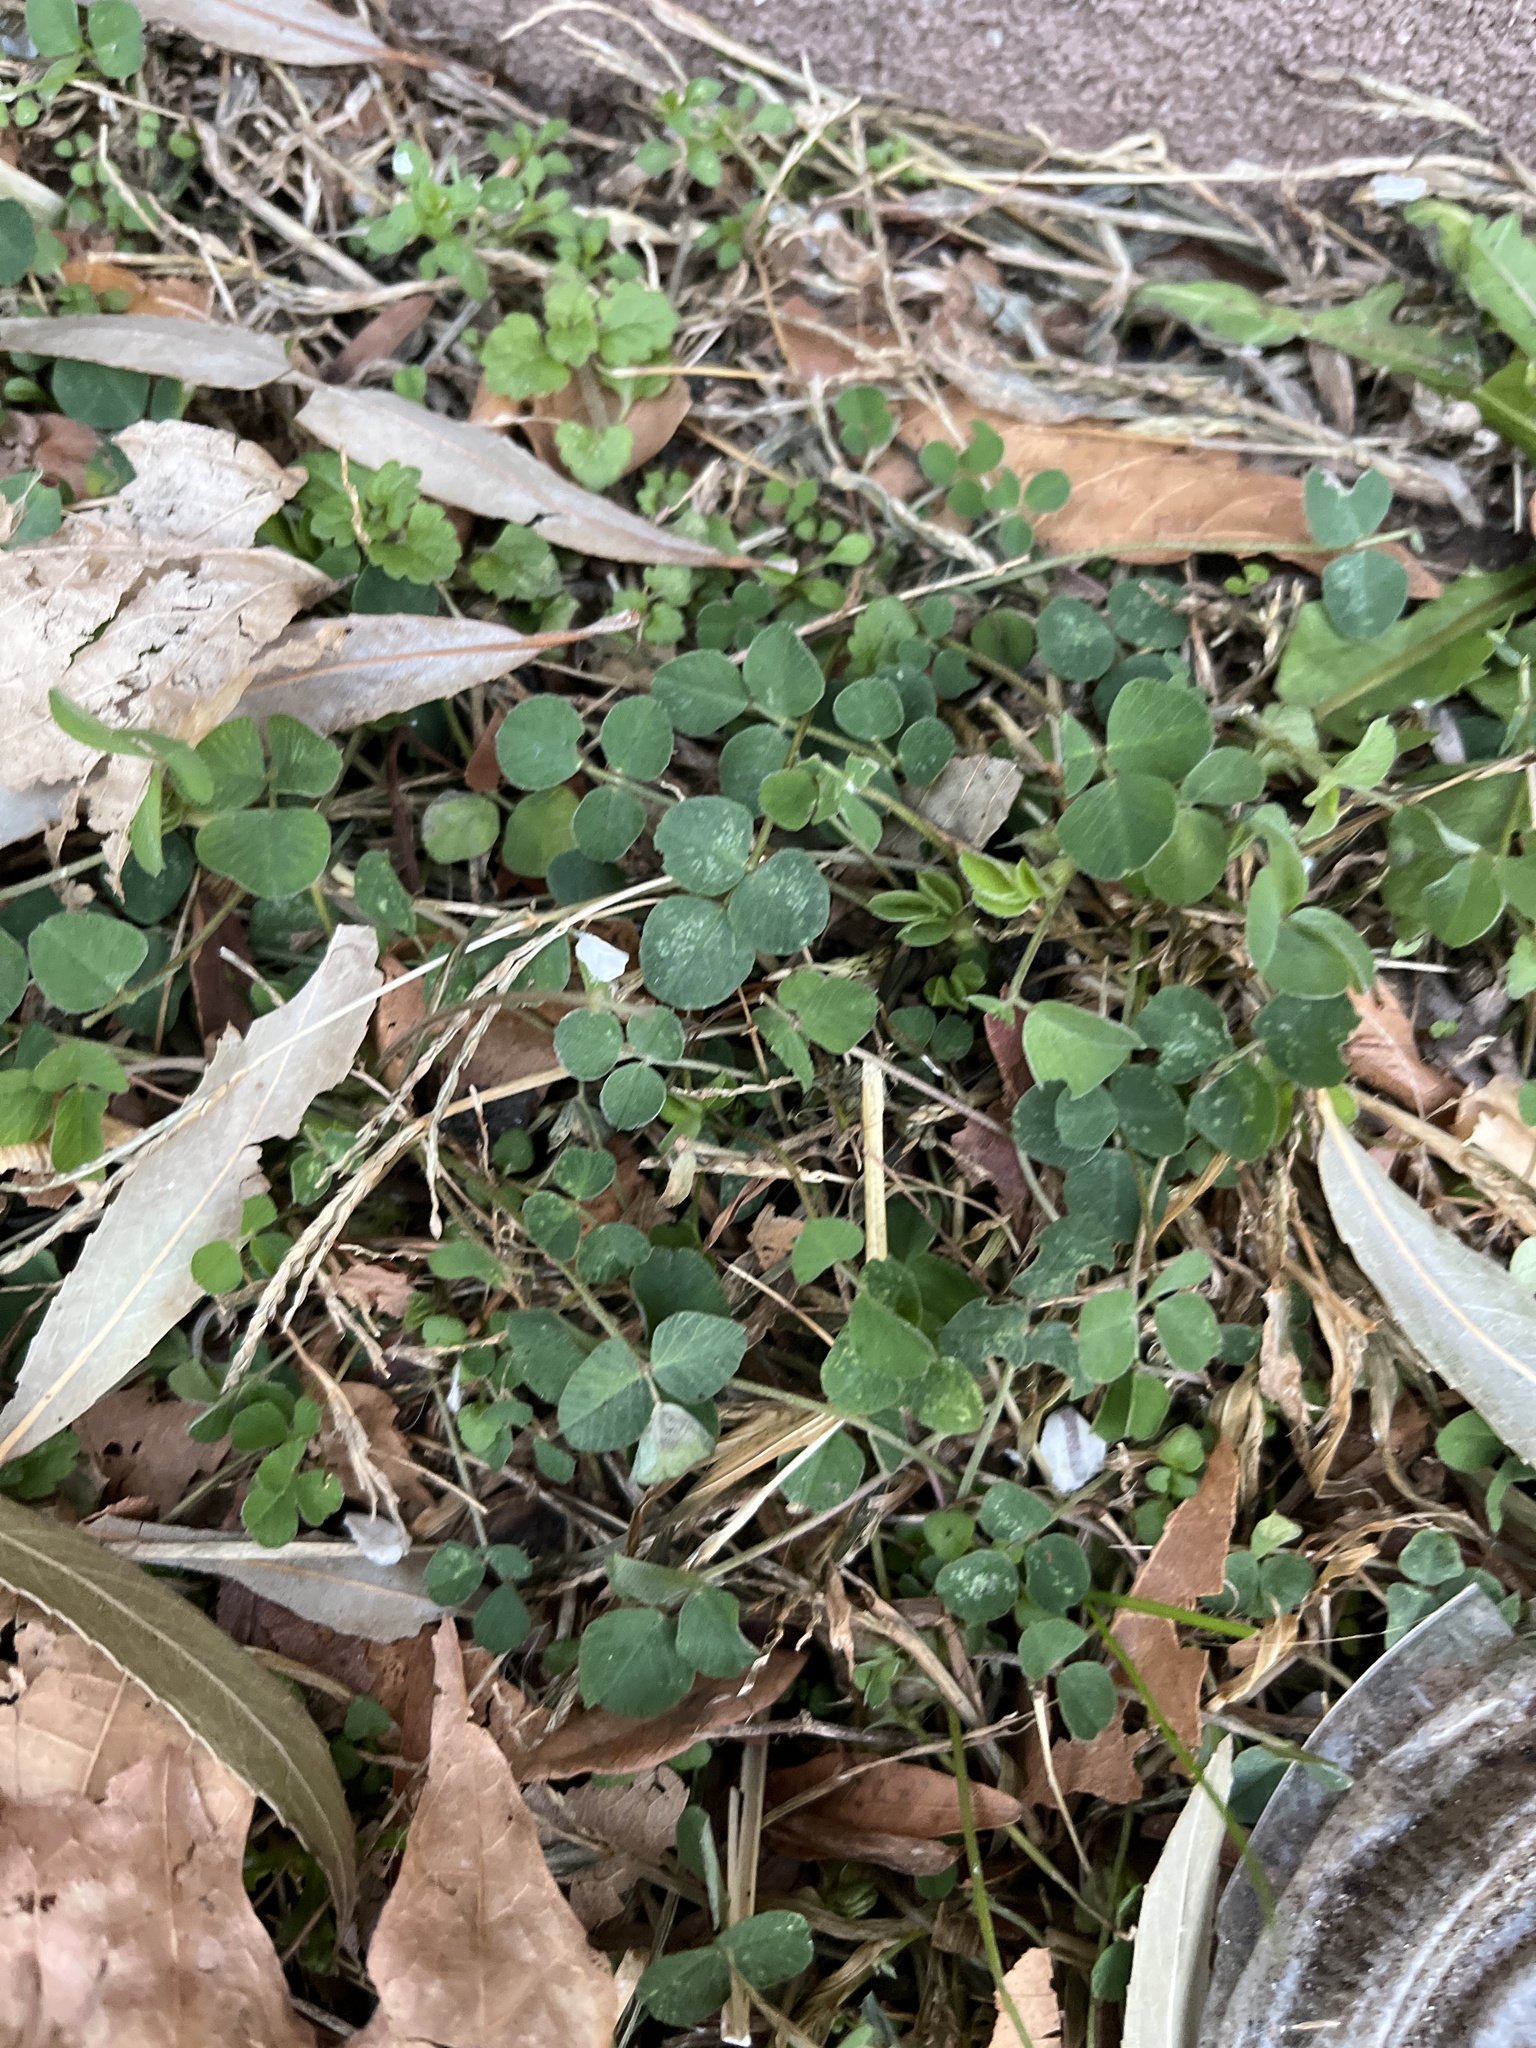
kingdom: Plantae
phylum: Tracheophyta
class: Magnoliopsida
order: Fabales
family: Fabaceae
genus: Medicago
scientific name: Medicago lupulina
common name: Black medick
